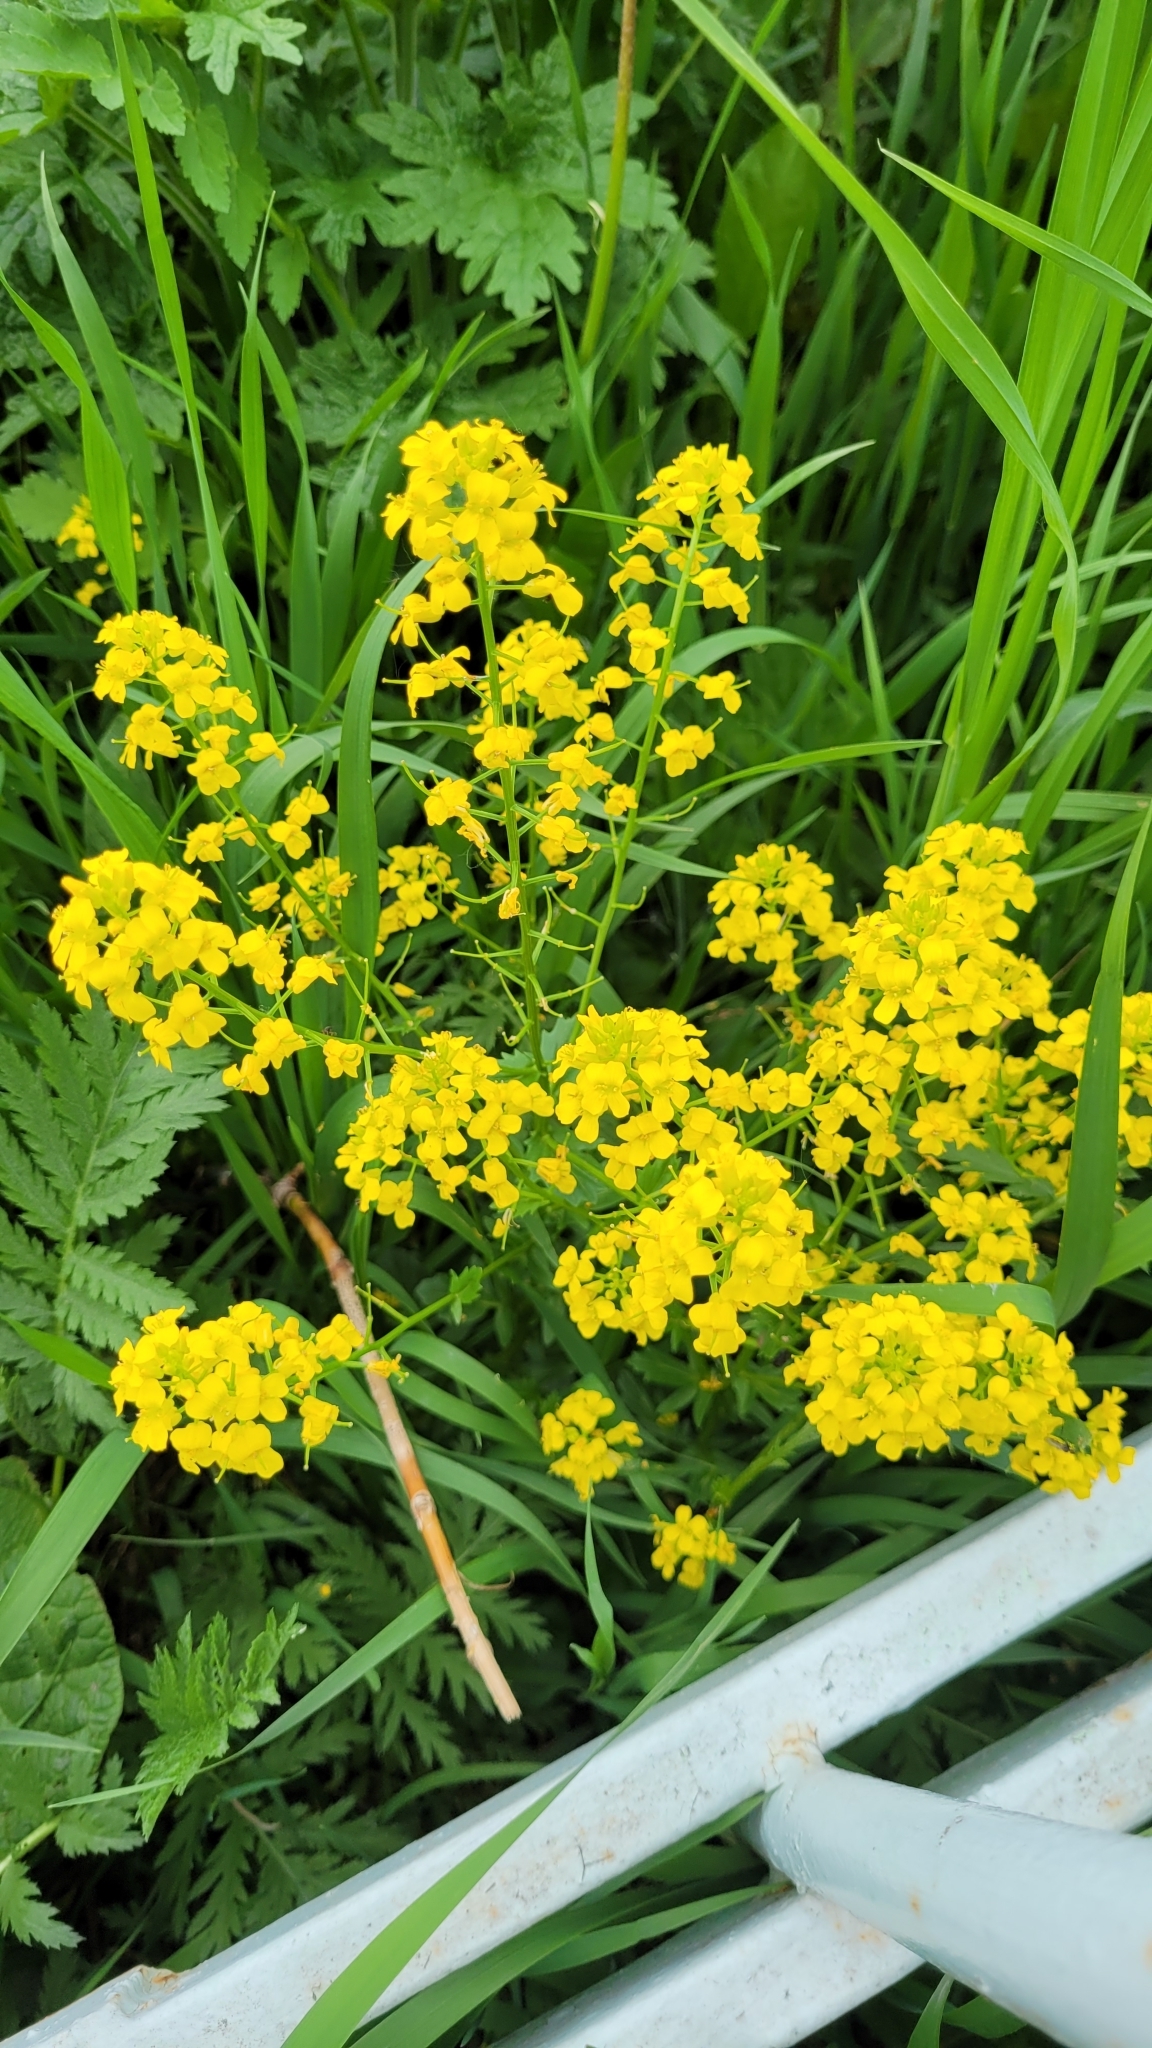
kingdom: Plantae
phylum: Tracheophyta
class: Magnoliopsida
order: Brassicales
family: Brassicaceae
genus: Barbarea
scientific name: Barbarea vulgaris
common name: Cressy-greens
